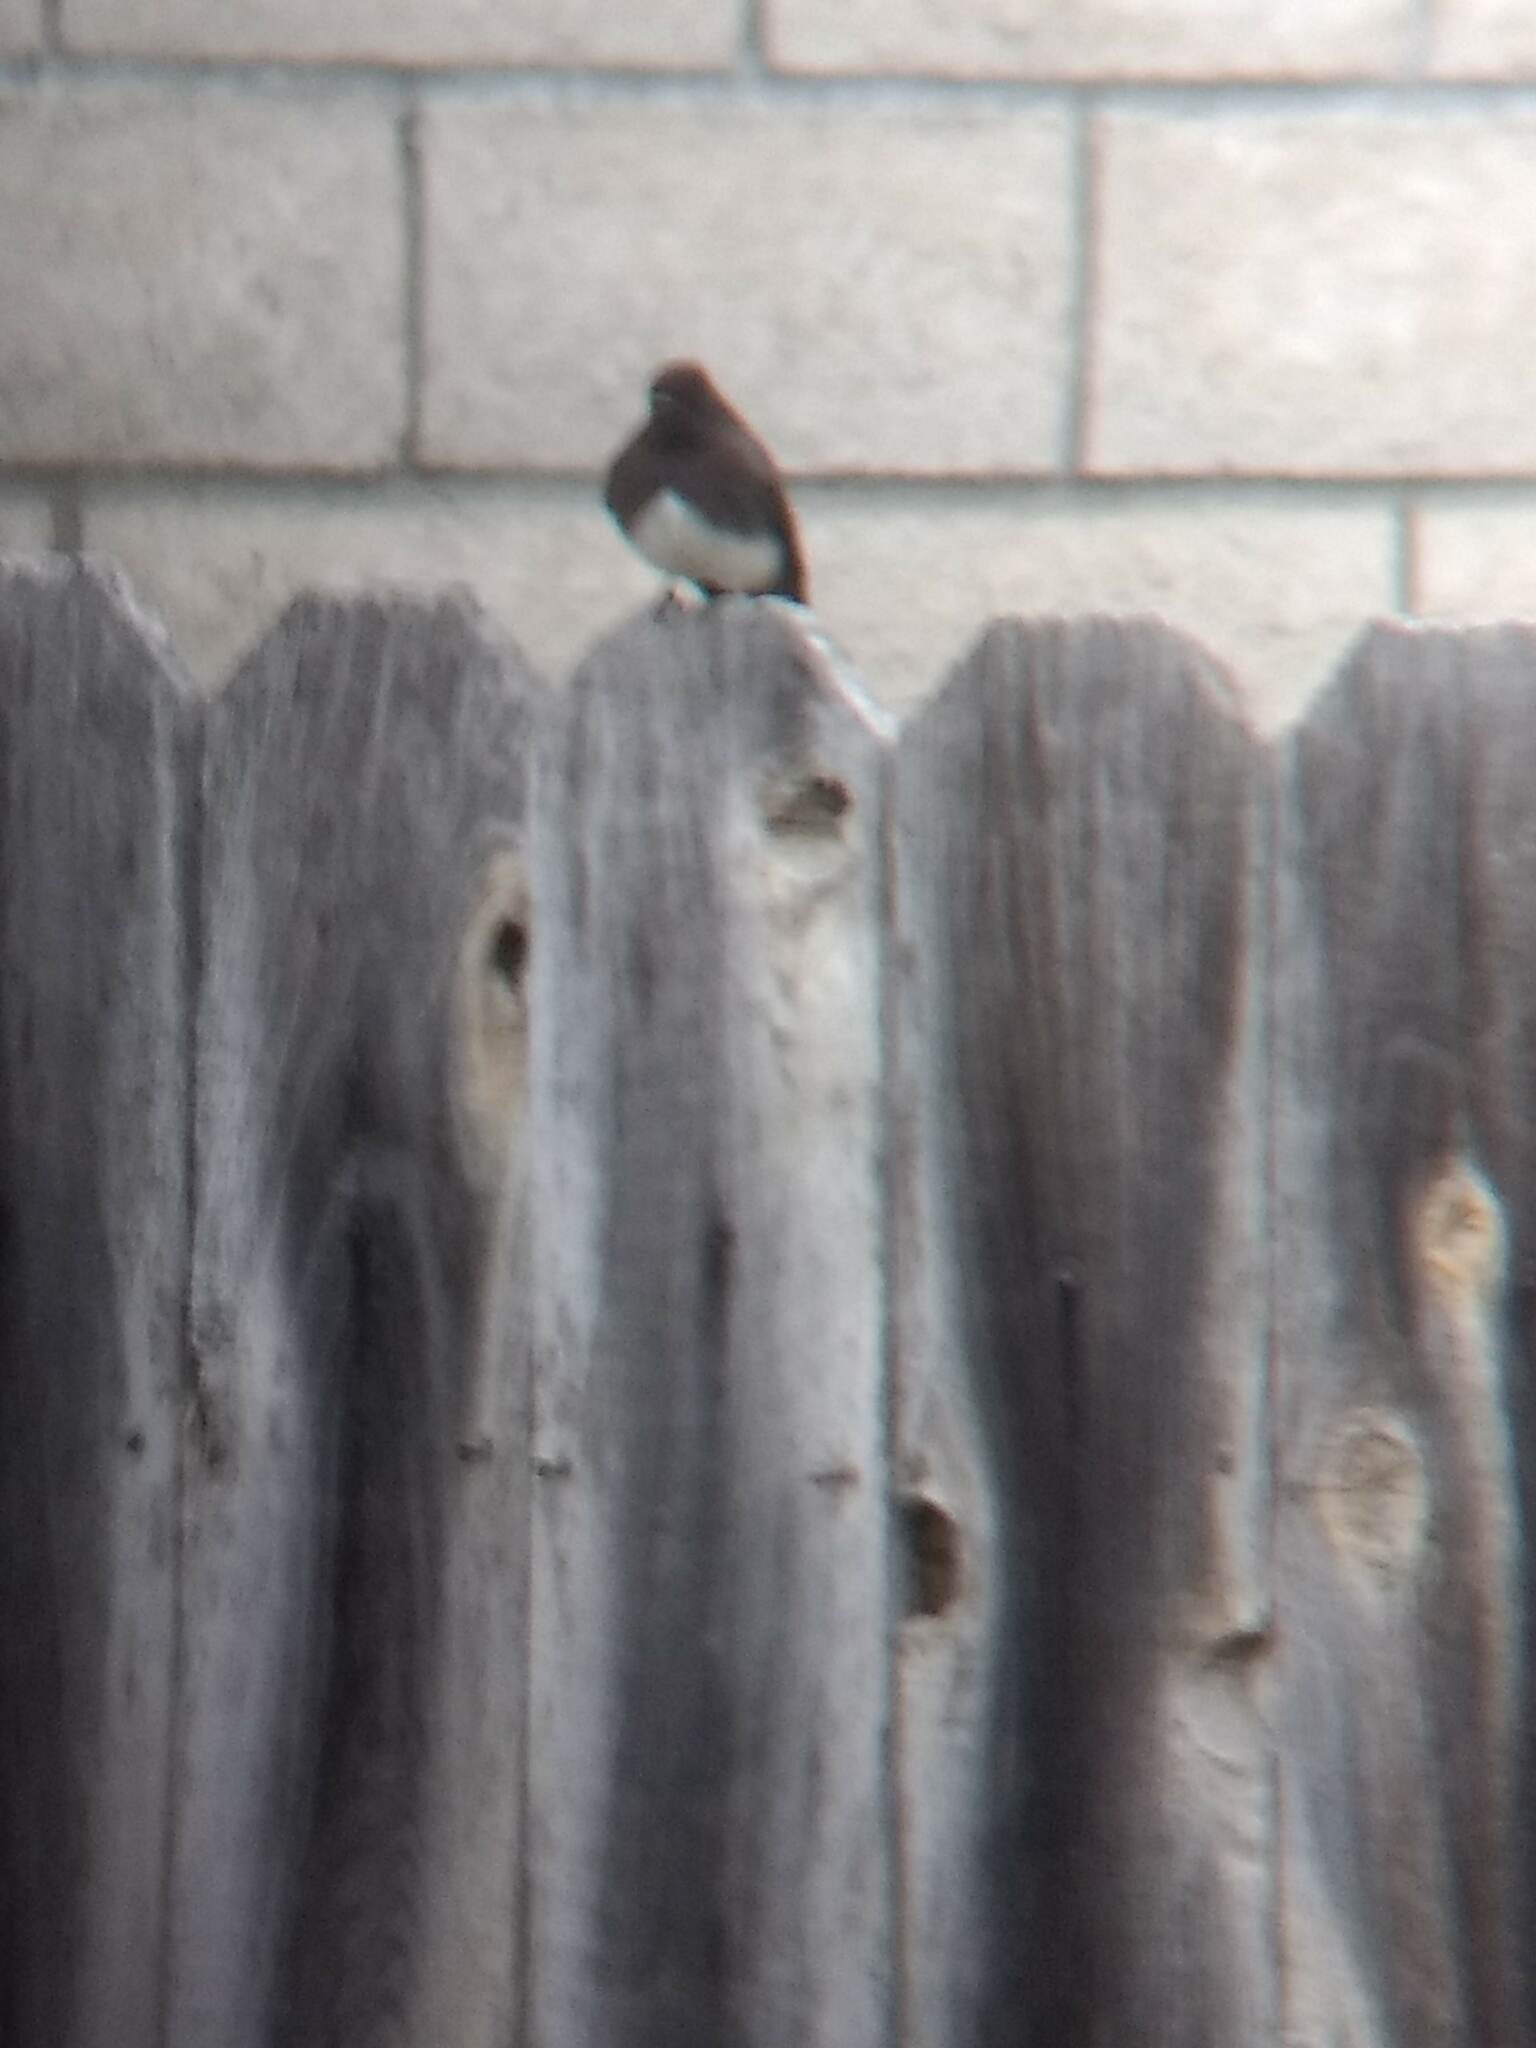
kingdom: Animalia
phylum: Chordata
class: Aves
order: Passeriformes
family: Tyrannidae
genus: Sayornis
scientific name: Sayornis nigricans
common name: Black phoebe
